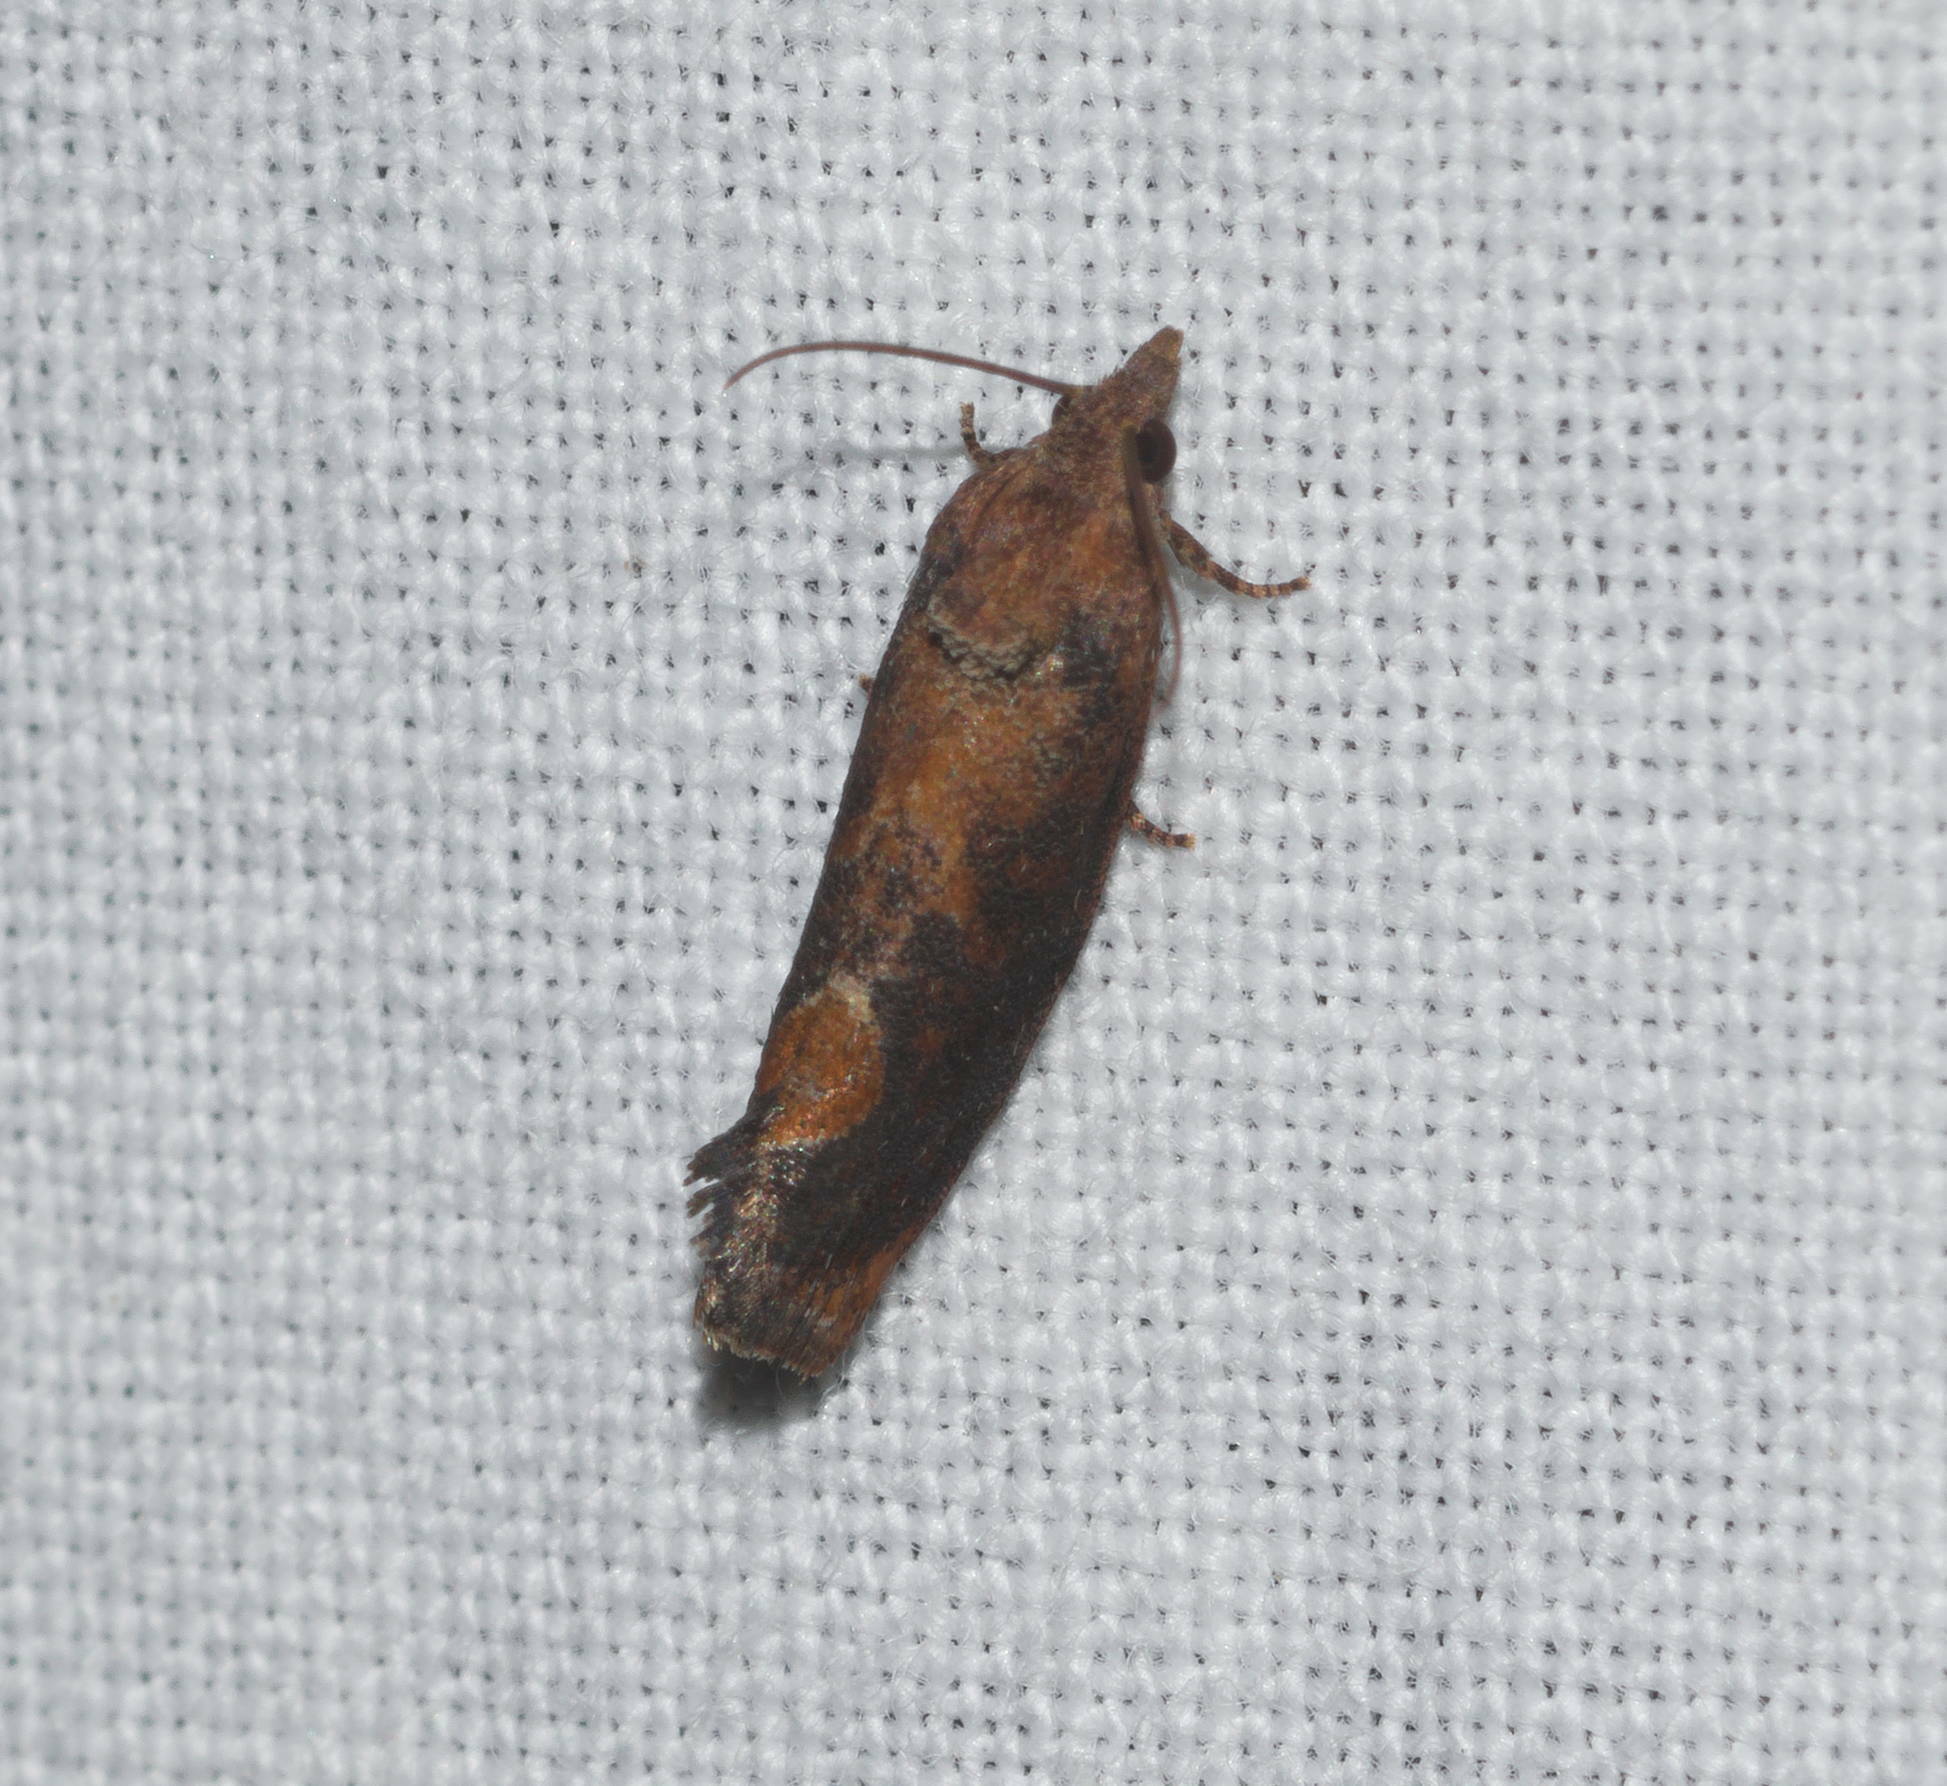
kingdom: Animalia
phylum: Arthropoda
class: Insecta
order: Lepidoptera
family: Tortricidae
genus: Cryptophlebia
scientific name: Cryptophlebia illepida
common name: Moth
